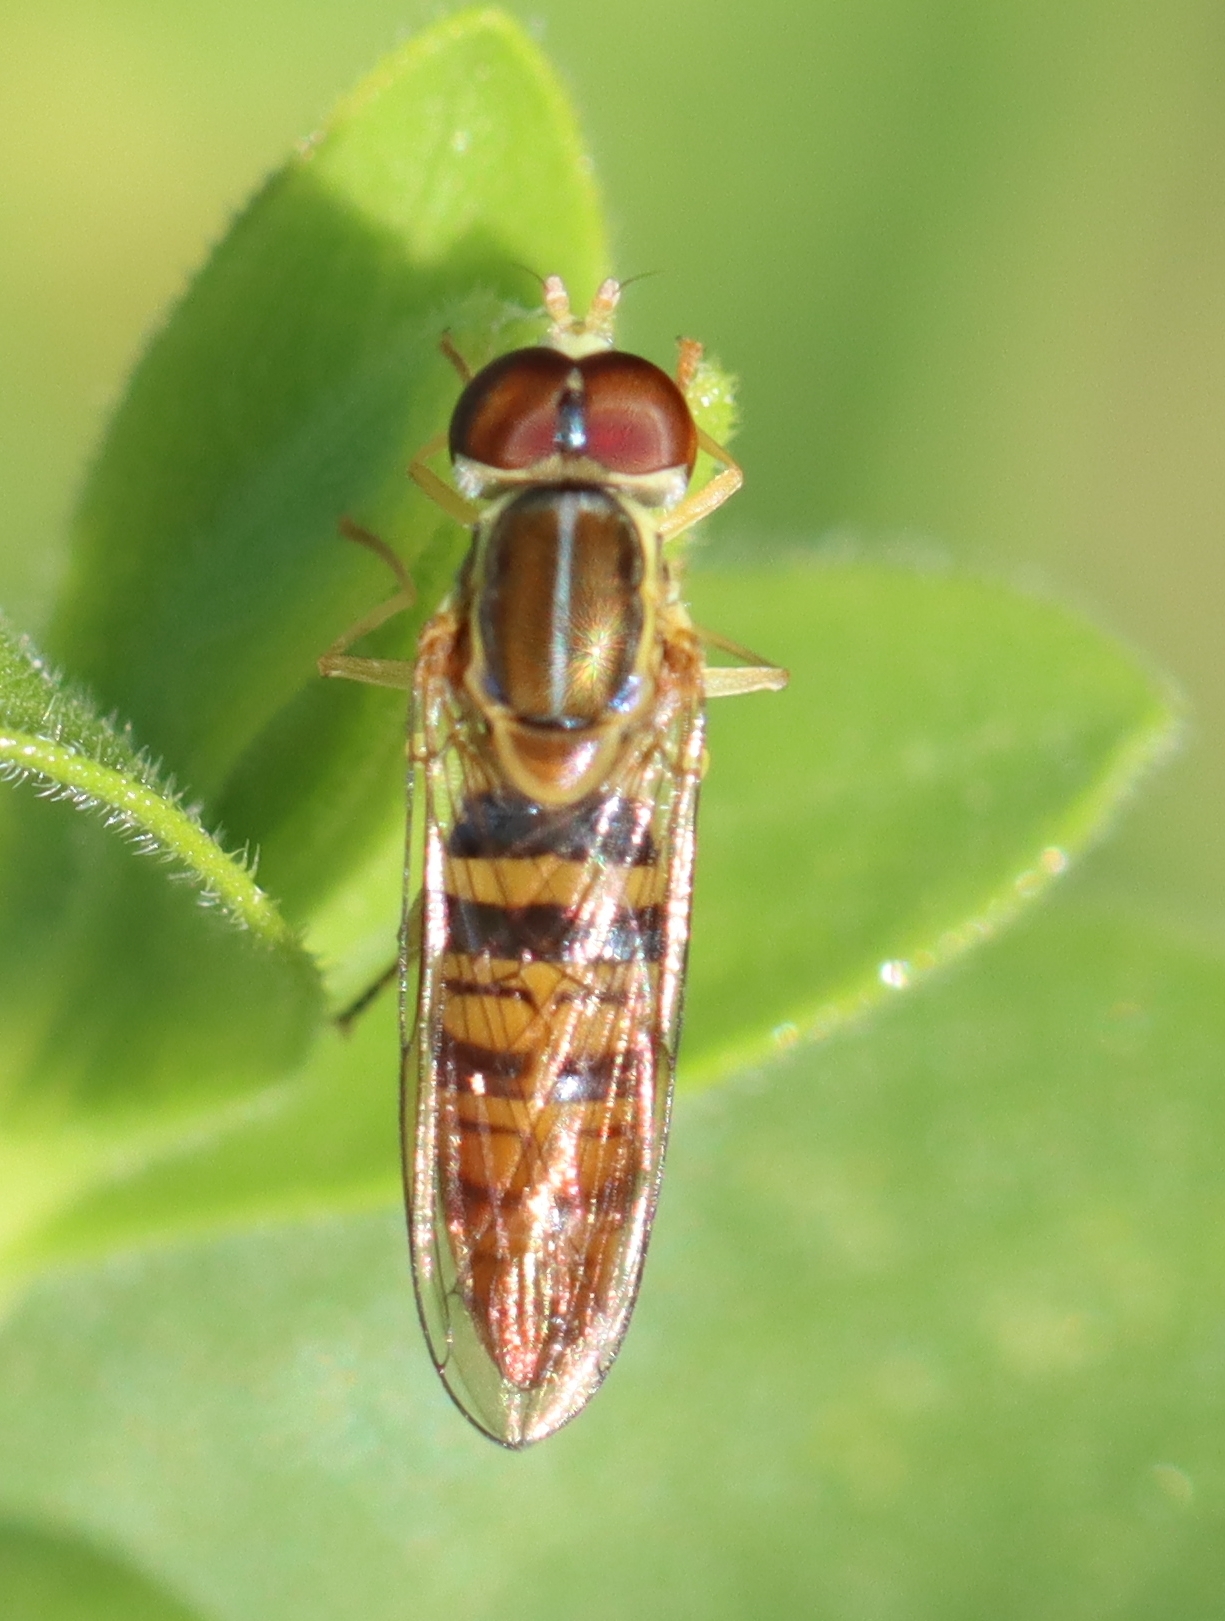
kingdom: Animalia
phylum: Arthropoda
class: Insecta
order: Diptera
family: Syrphidae
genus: Toxomerus
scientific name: Toxomerus politus
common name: Maize calligrapher
